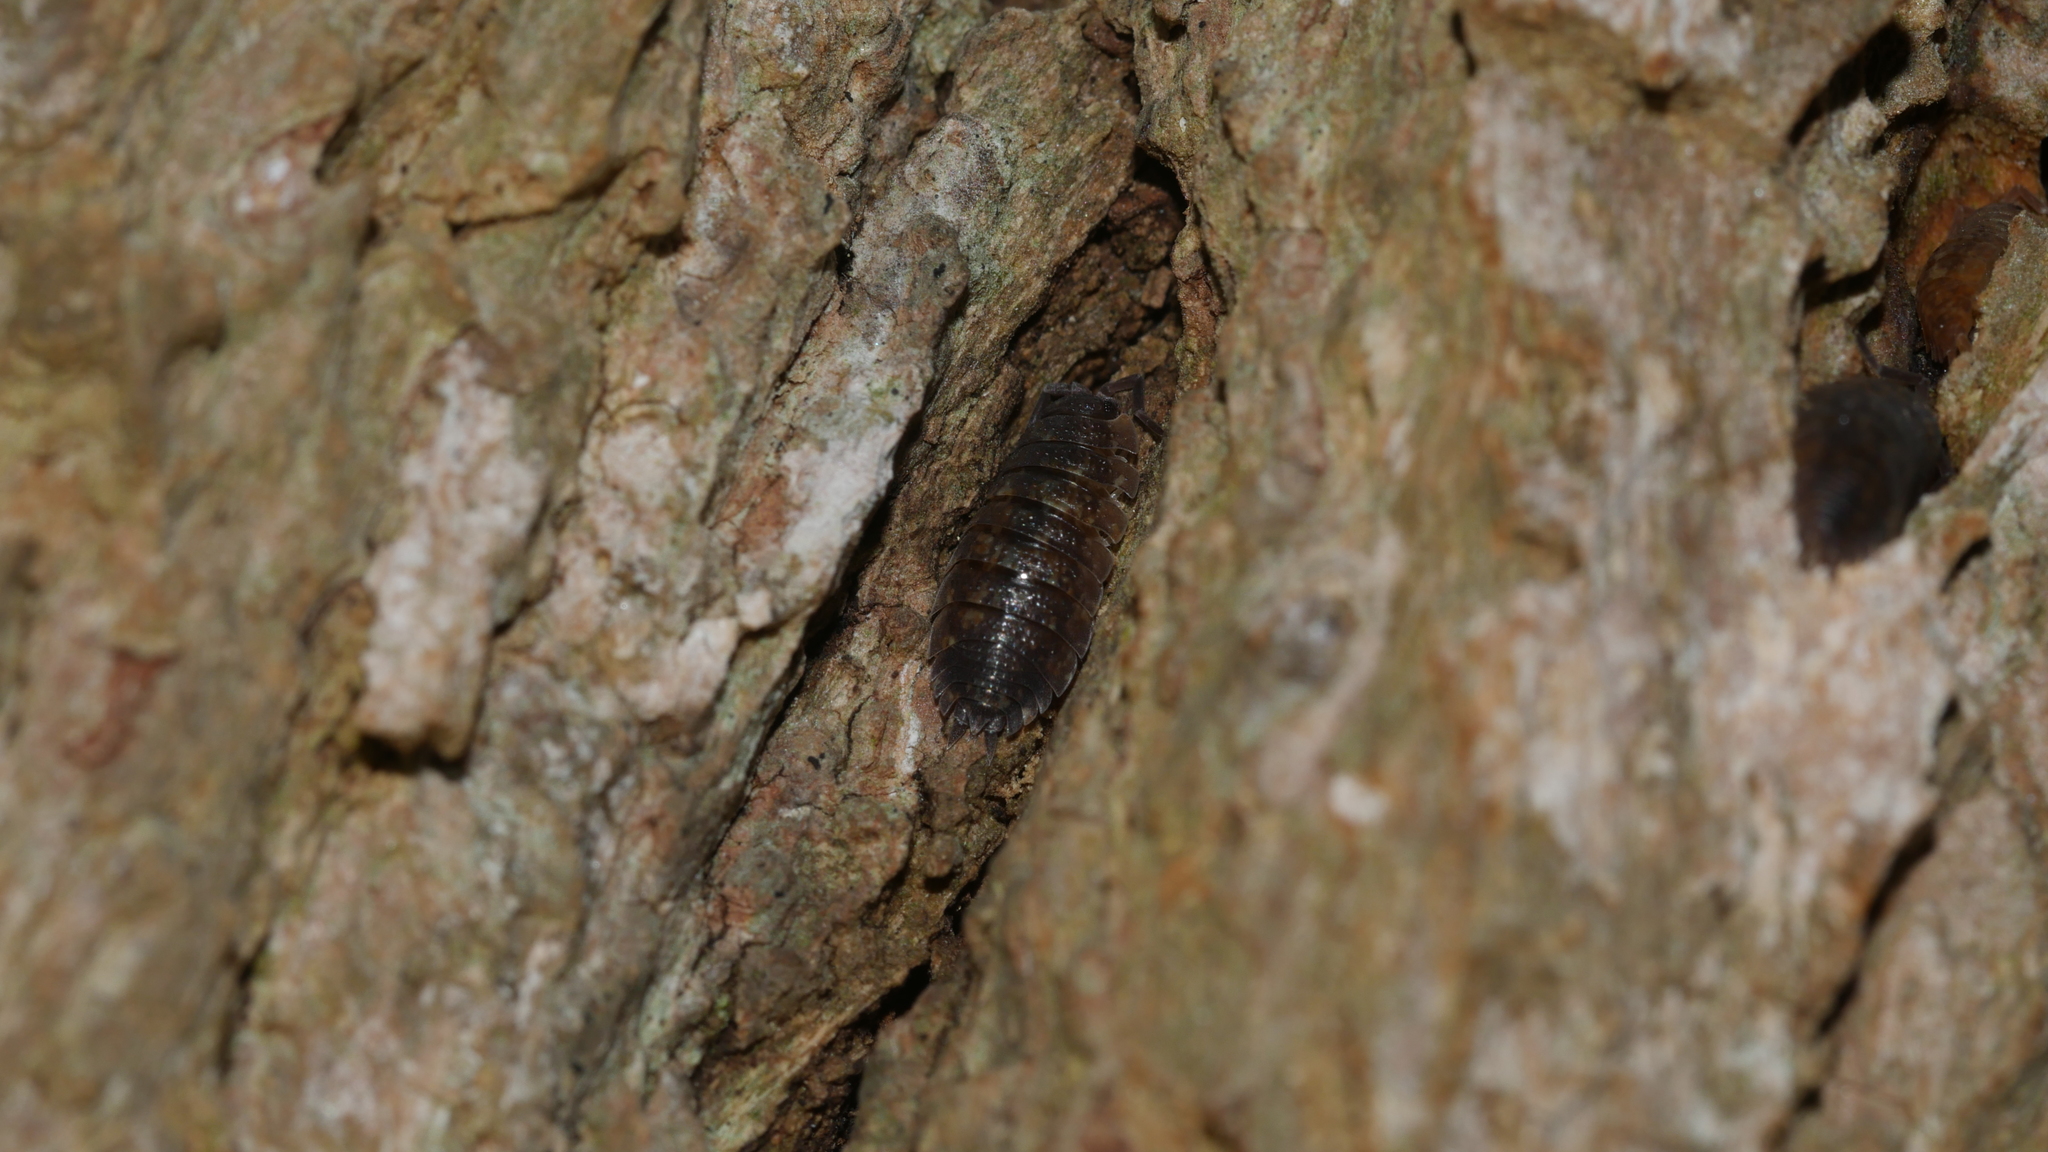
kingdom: Animalia
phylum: Arthropoda
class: Malacostraca
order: Isopoda
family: Porcellionidae
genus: Porcellio
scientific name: Porcellio scaber
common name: Common rough woodlouse
